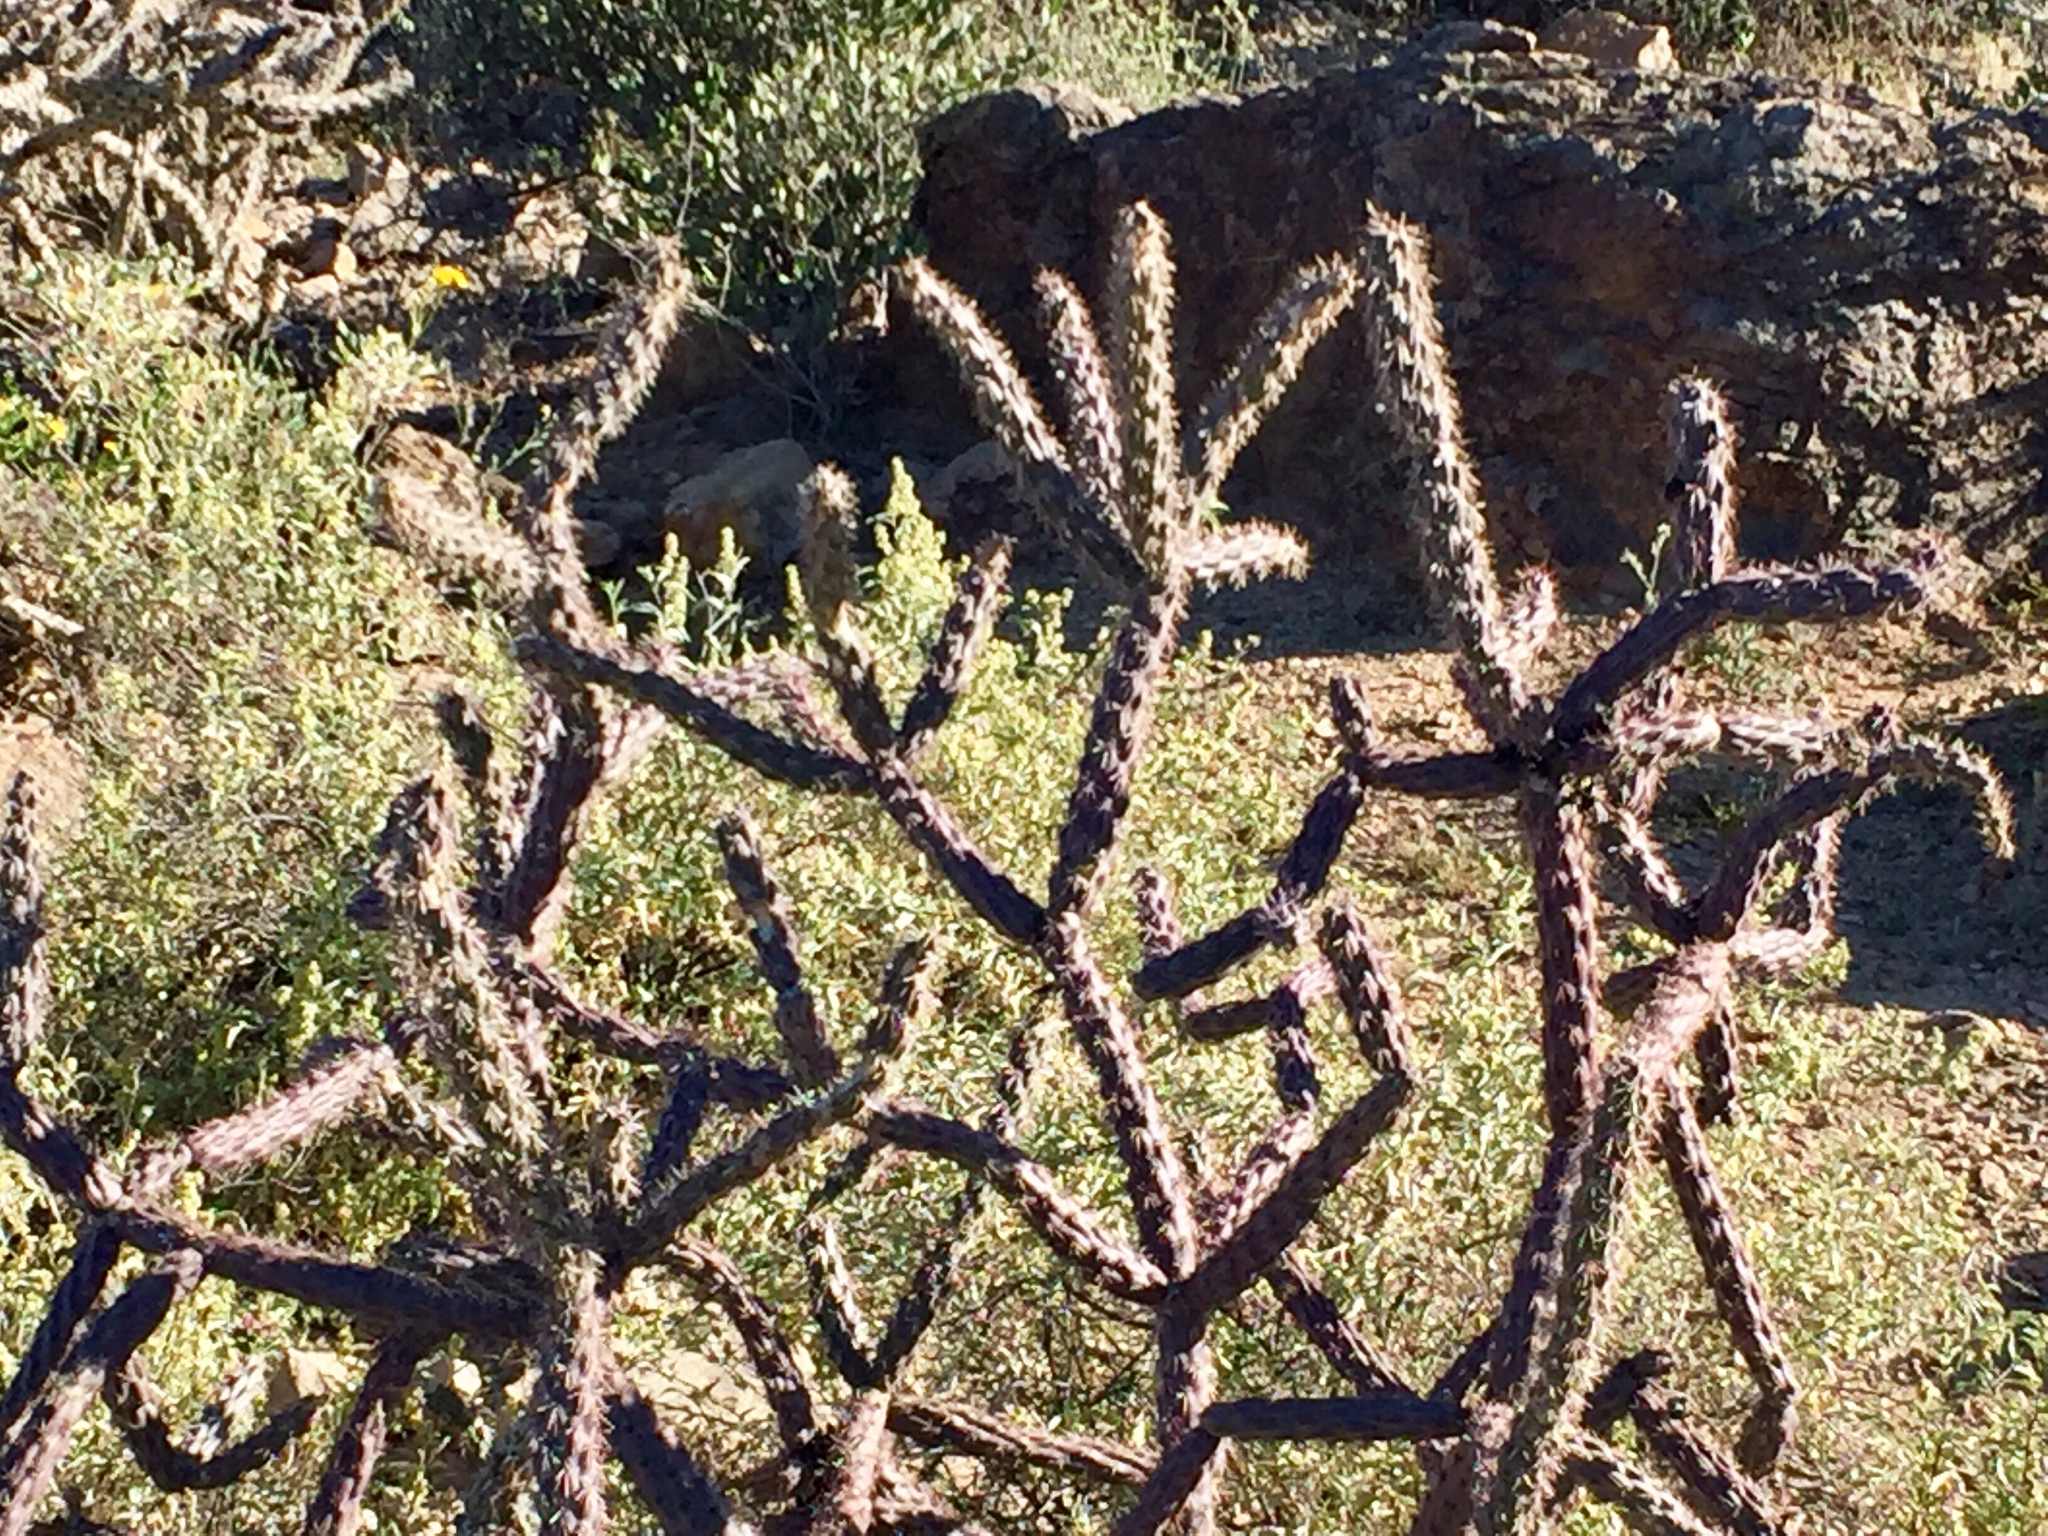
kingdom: Plantae
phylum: Tracheophyta
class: Magnoliopsida
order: Caryophyllales
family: Cactaceae
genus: Cylindropuntia
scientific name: Cylindropuntia thurberi
